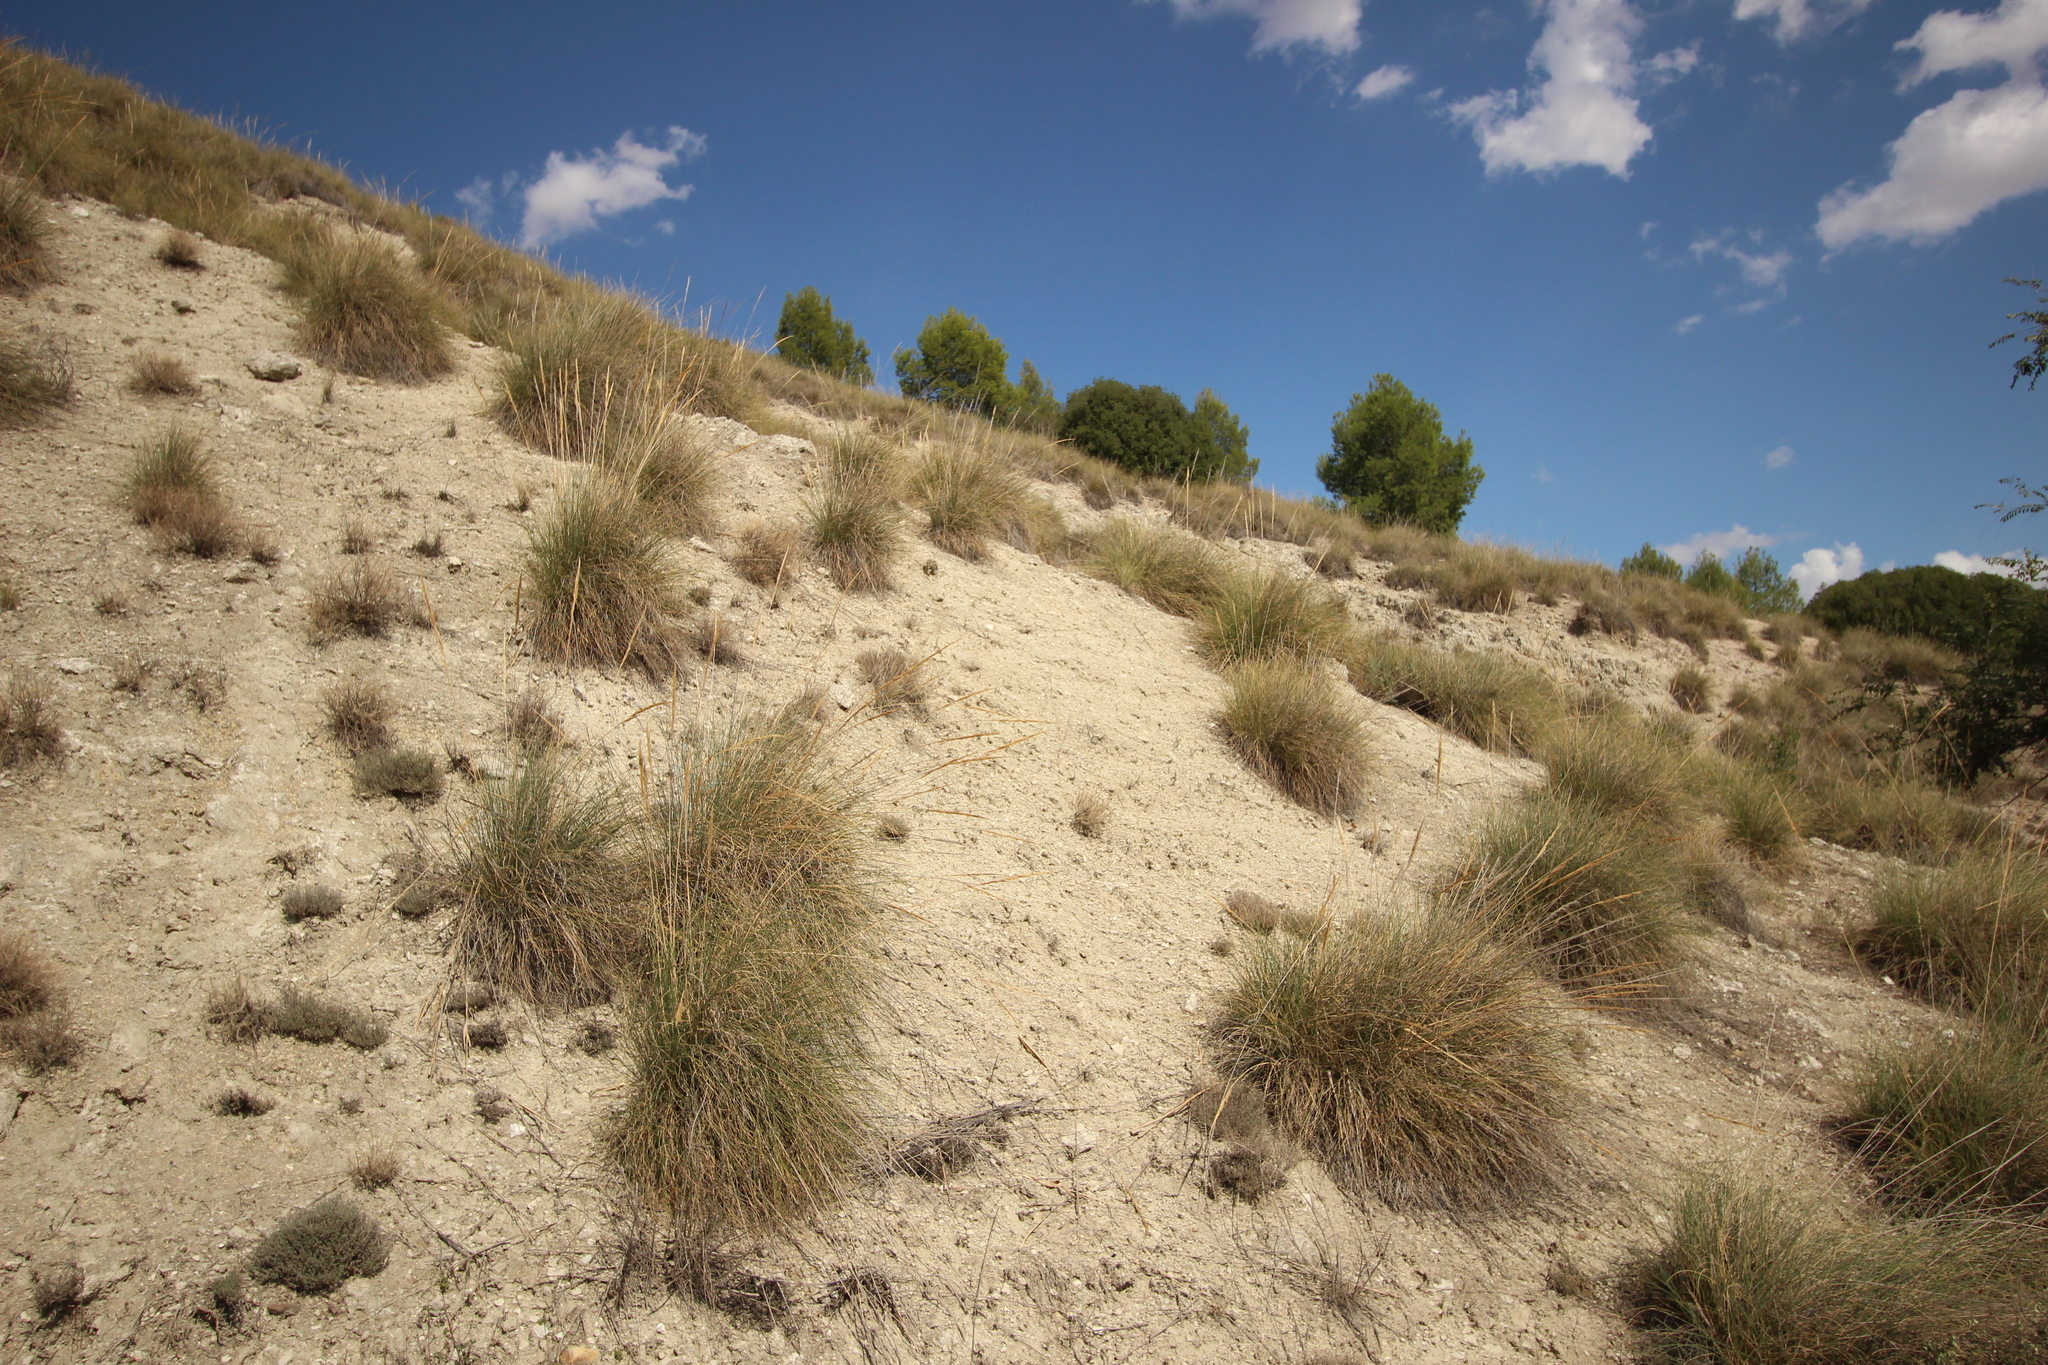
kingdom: Plantae
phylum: Tracheophyta
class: Liliopsida
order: Poales
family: Poaceae
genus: Macrochloa
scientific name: Macrochloa tenacissima
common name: Alfa grass
